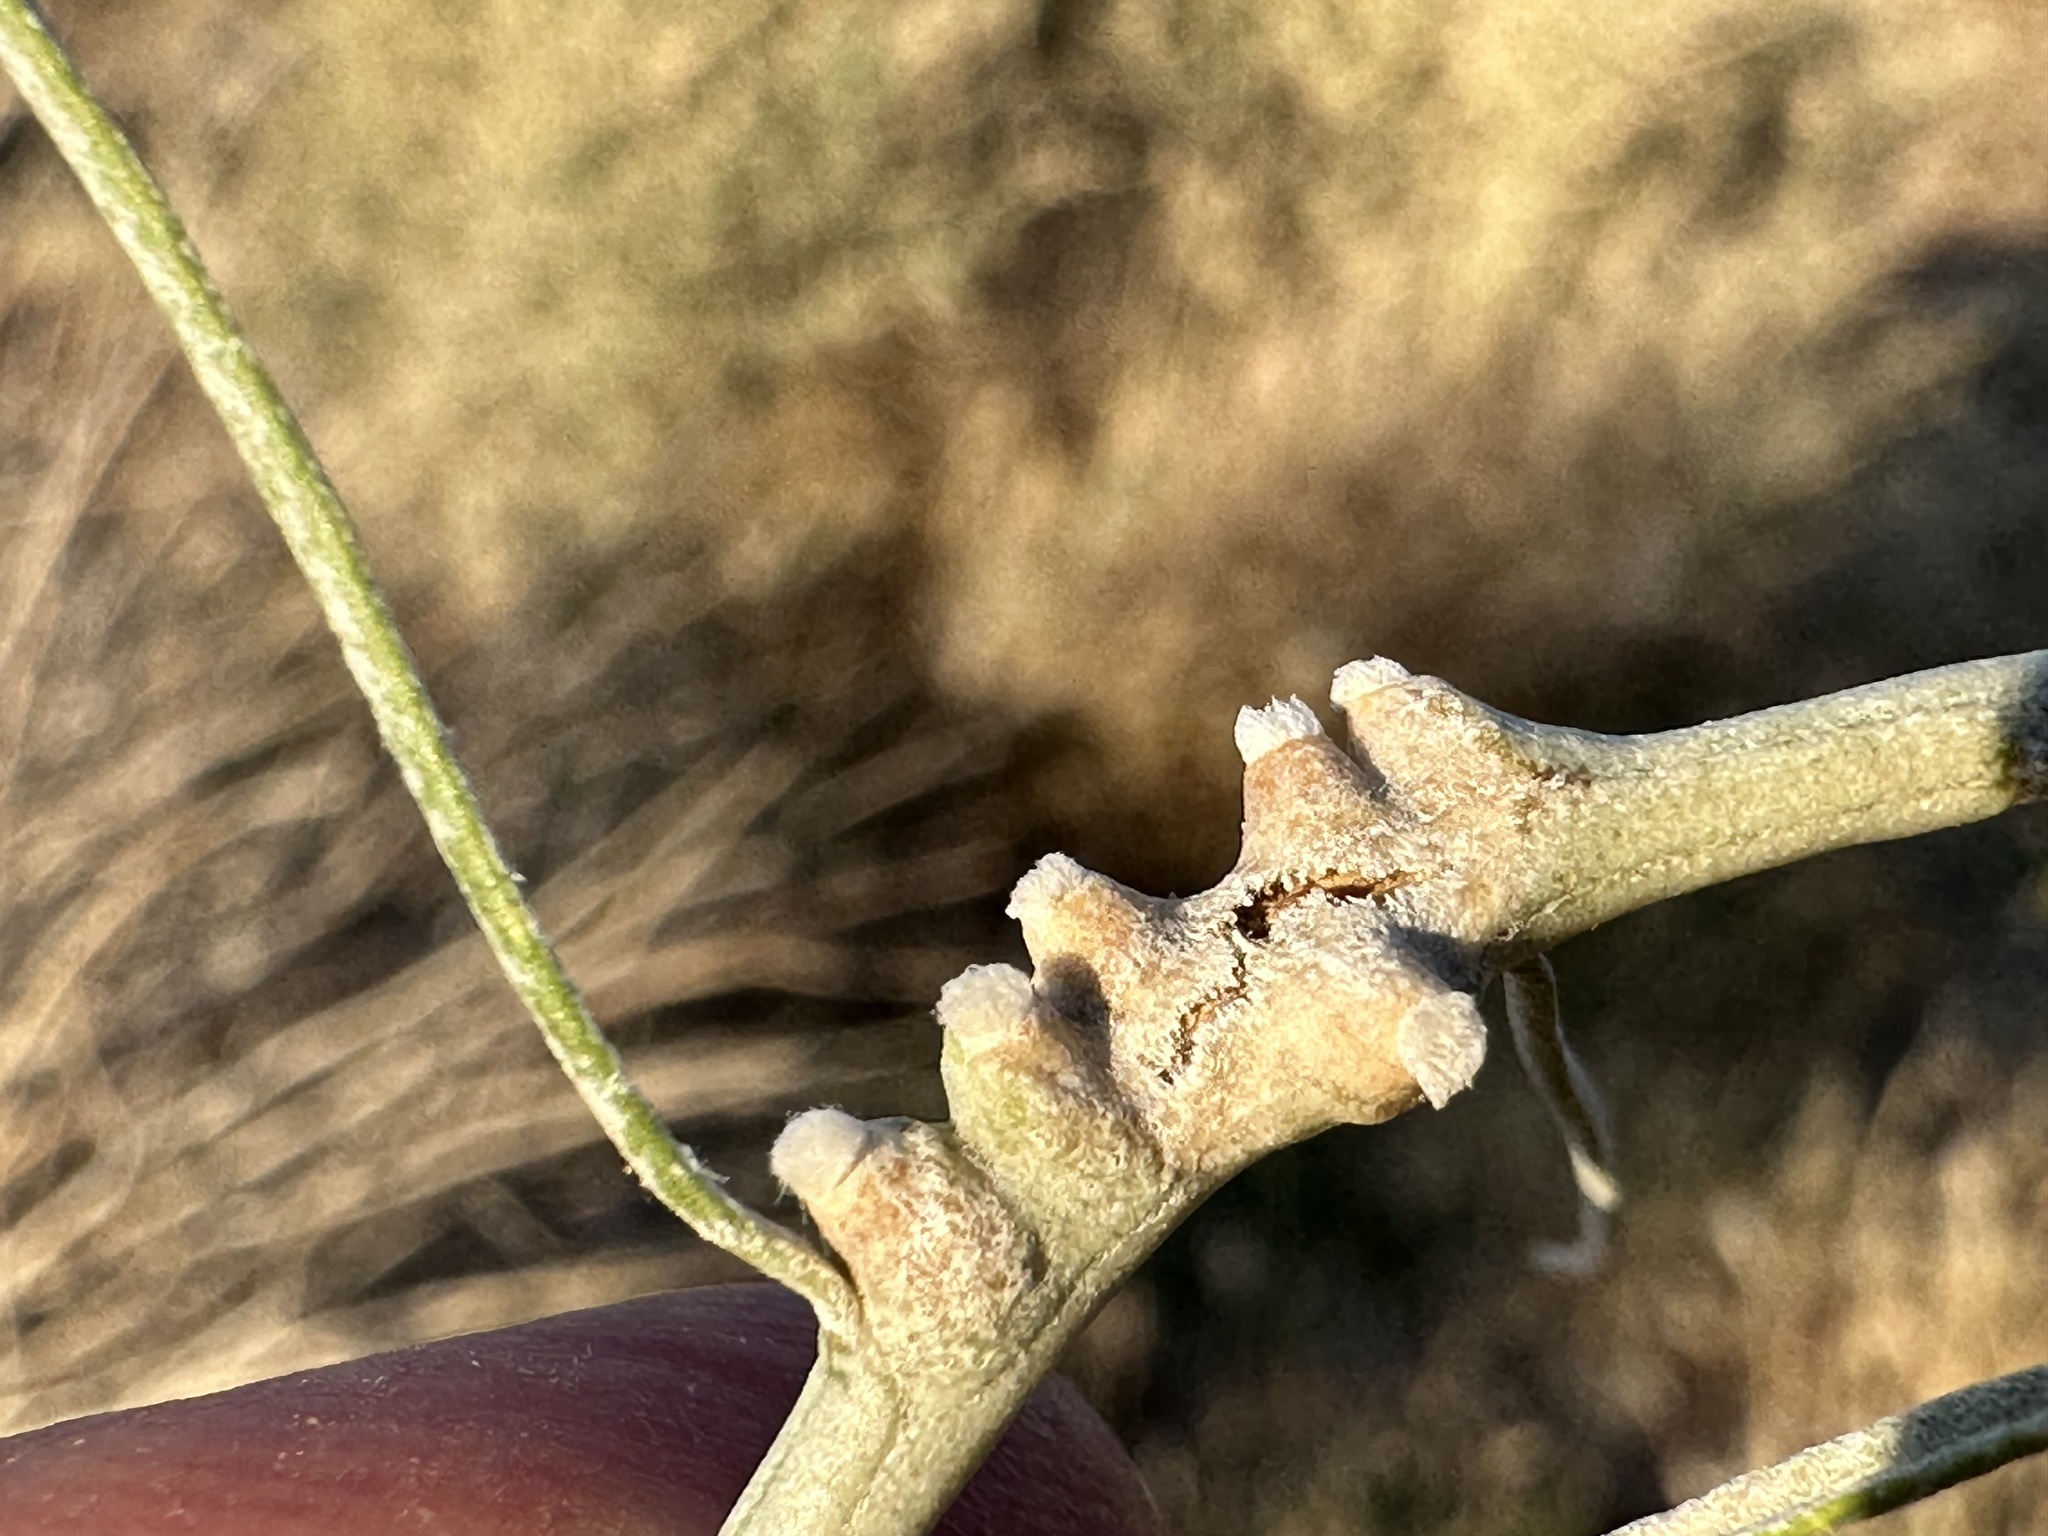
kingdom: Animalia
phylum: Arthropoda
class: Insecta
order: Diptera
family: Cecidomyiidae
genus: Rhopalomyia
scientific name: Rhopalomyia chrysothamni
